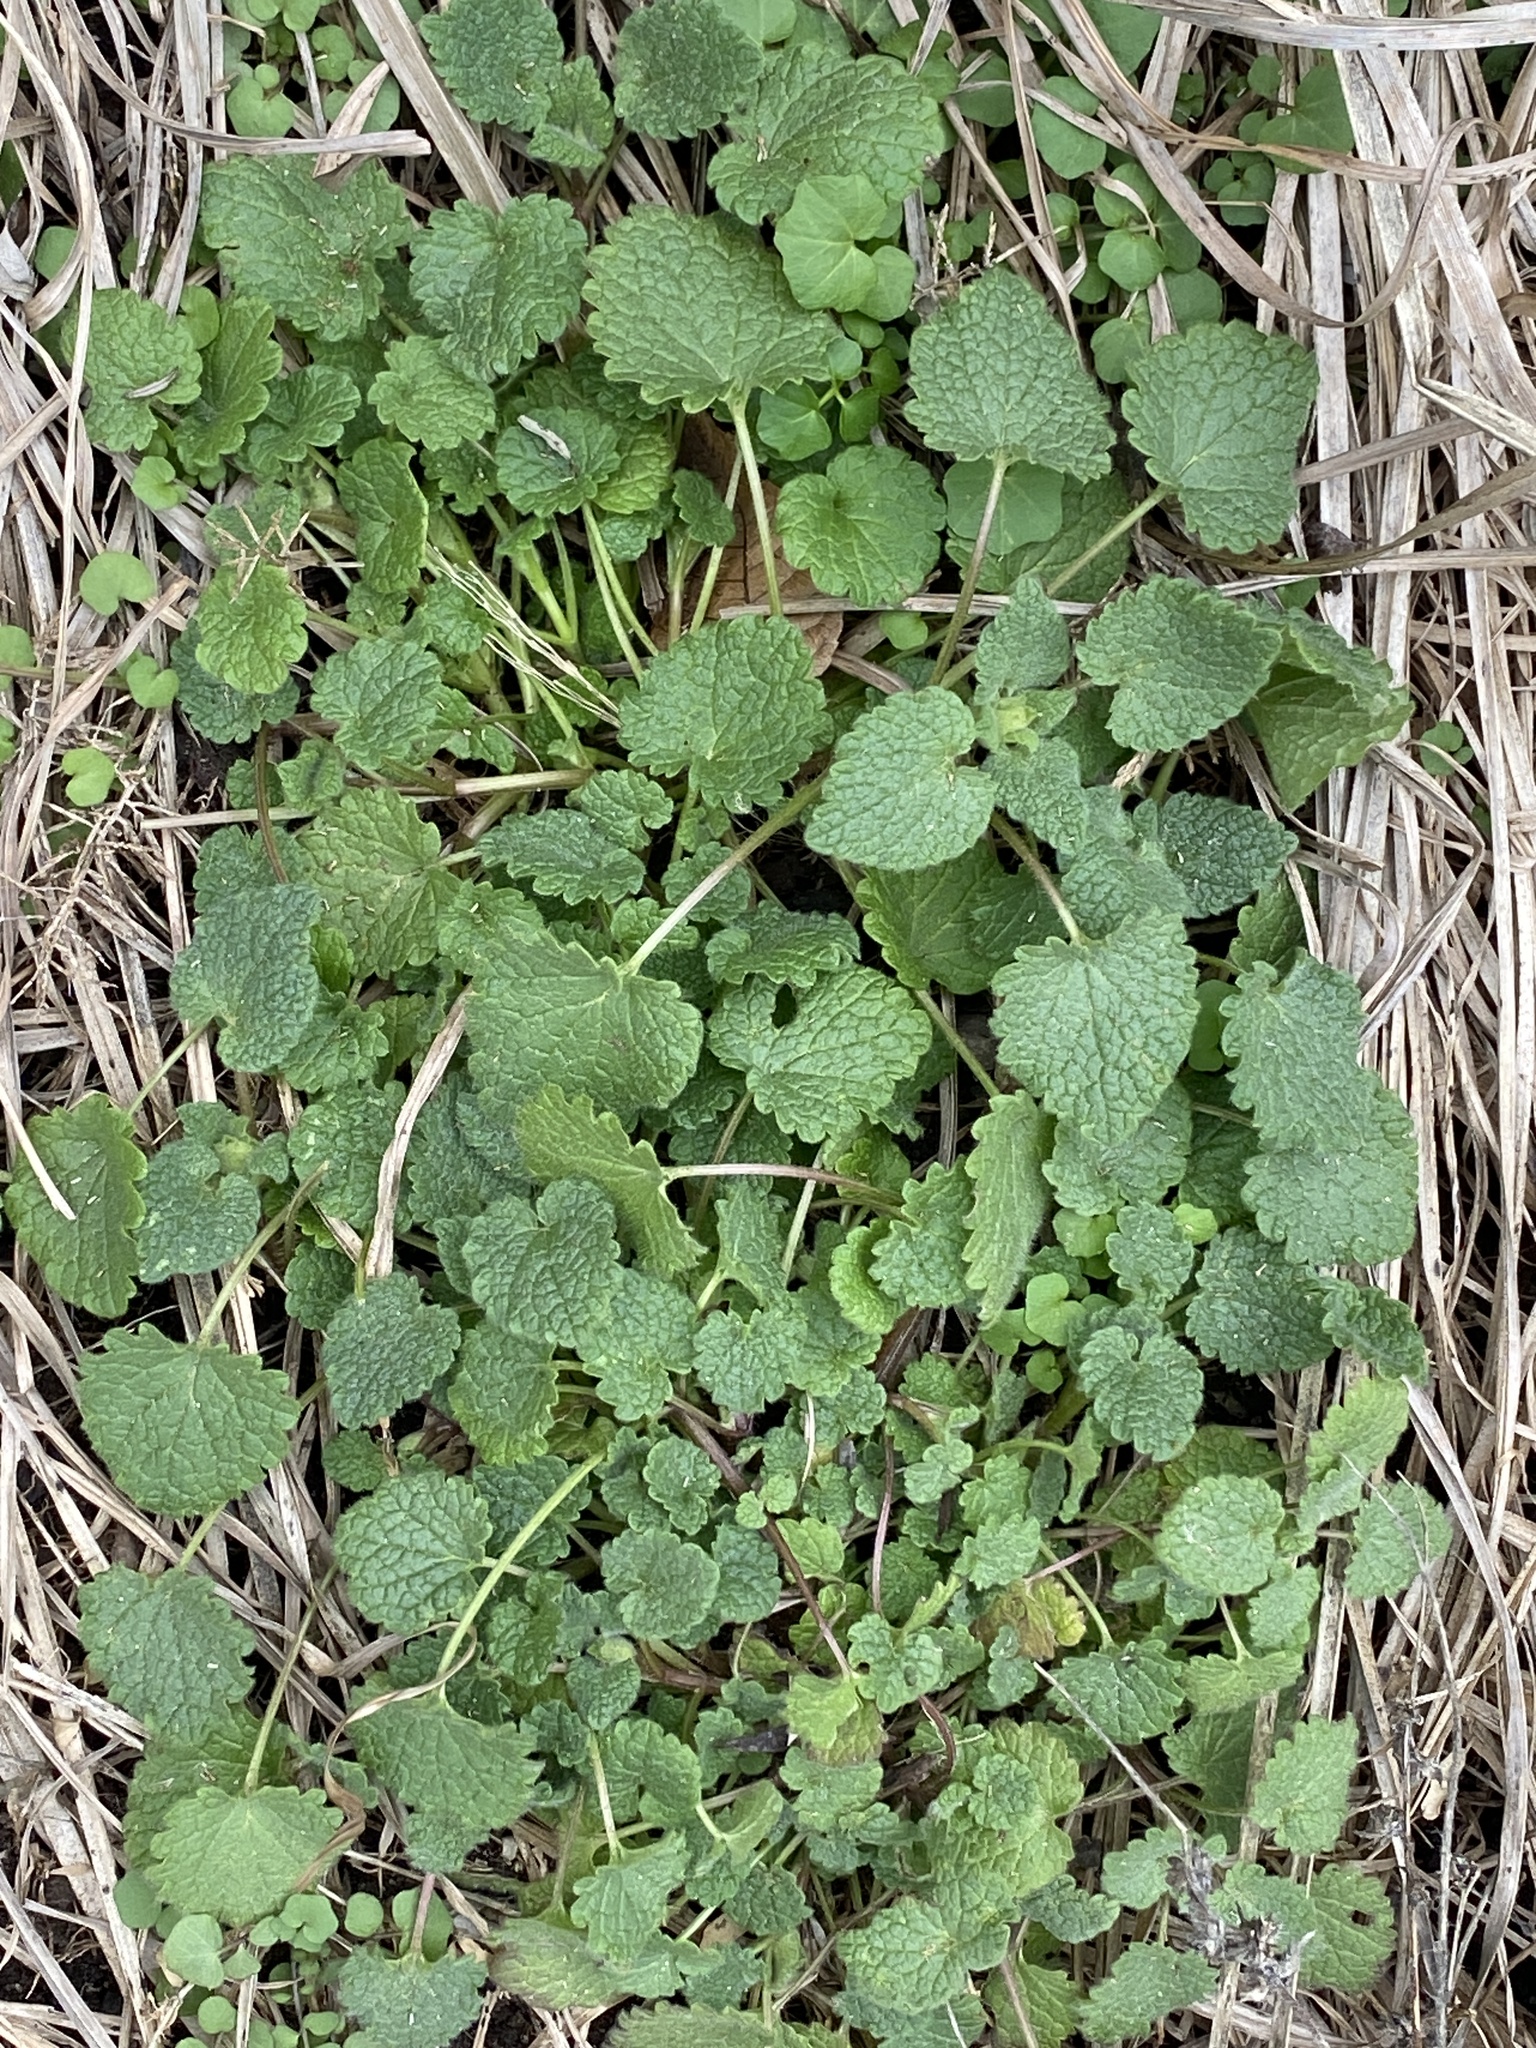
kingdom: Plantae
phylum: Tracheophyta
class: Magnoliopsida
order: Lamiales
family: Lamiaceae
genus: Lamium
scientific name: Lamium purpureum
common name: Red dead-nettle
